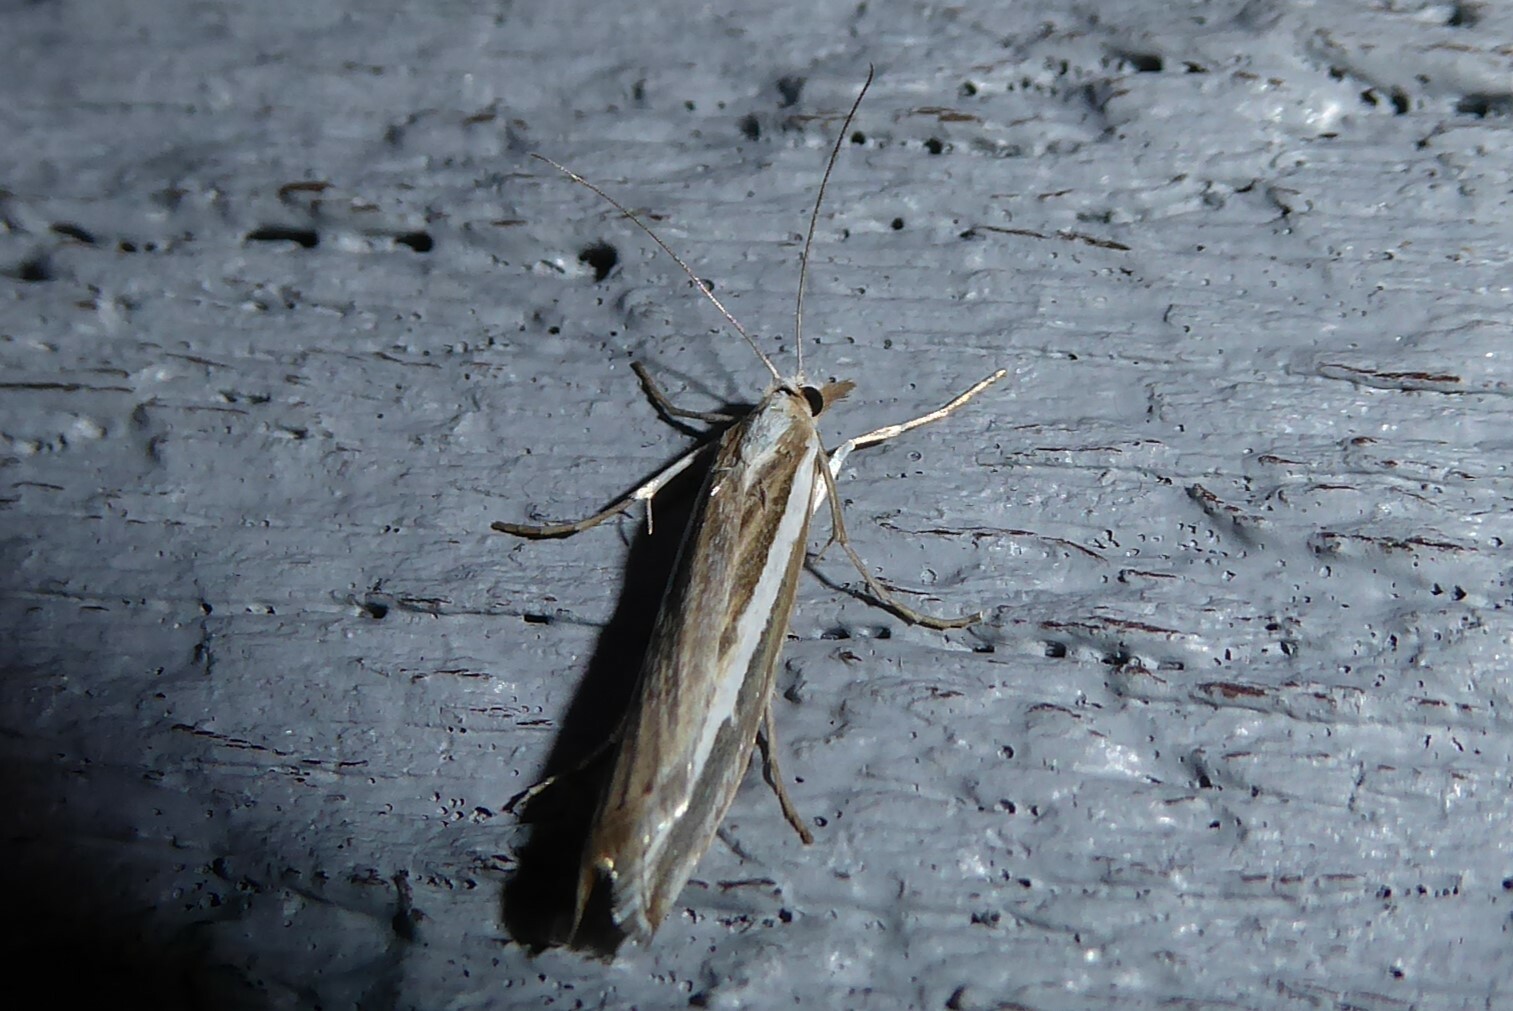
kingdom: Animalia
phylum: Arthropoda
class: Insecta
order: Lepidoptera
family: Crambidae
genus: Orocrambus
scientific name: Orocrambus vittellus
